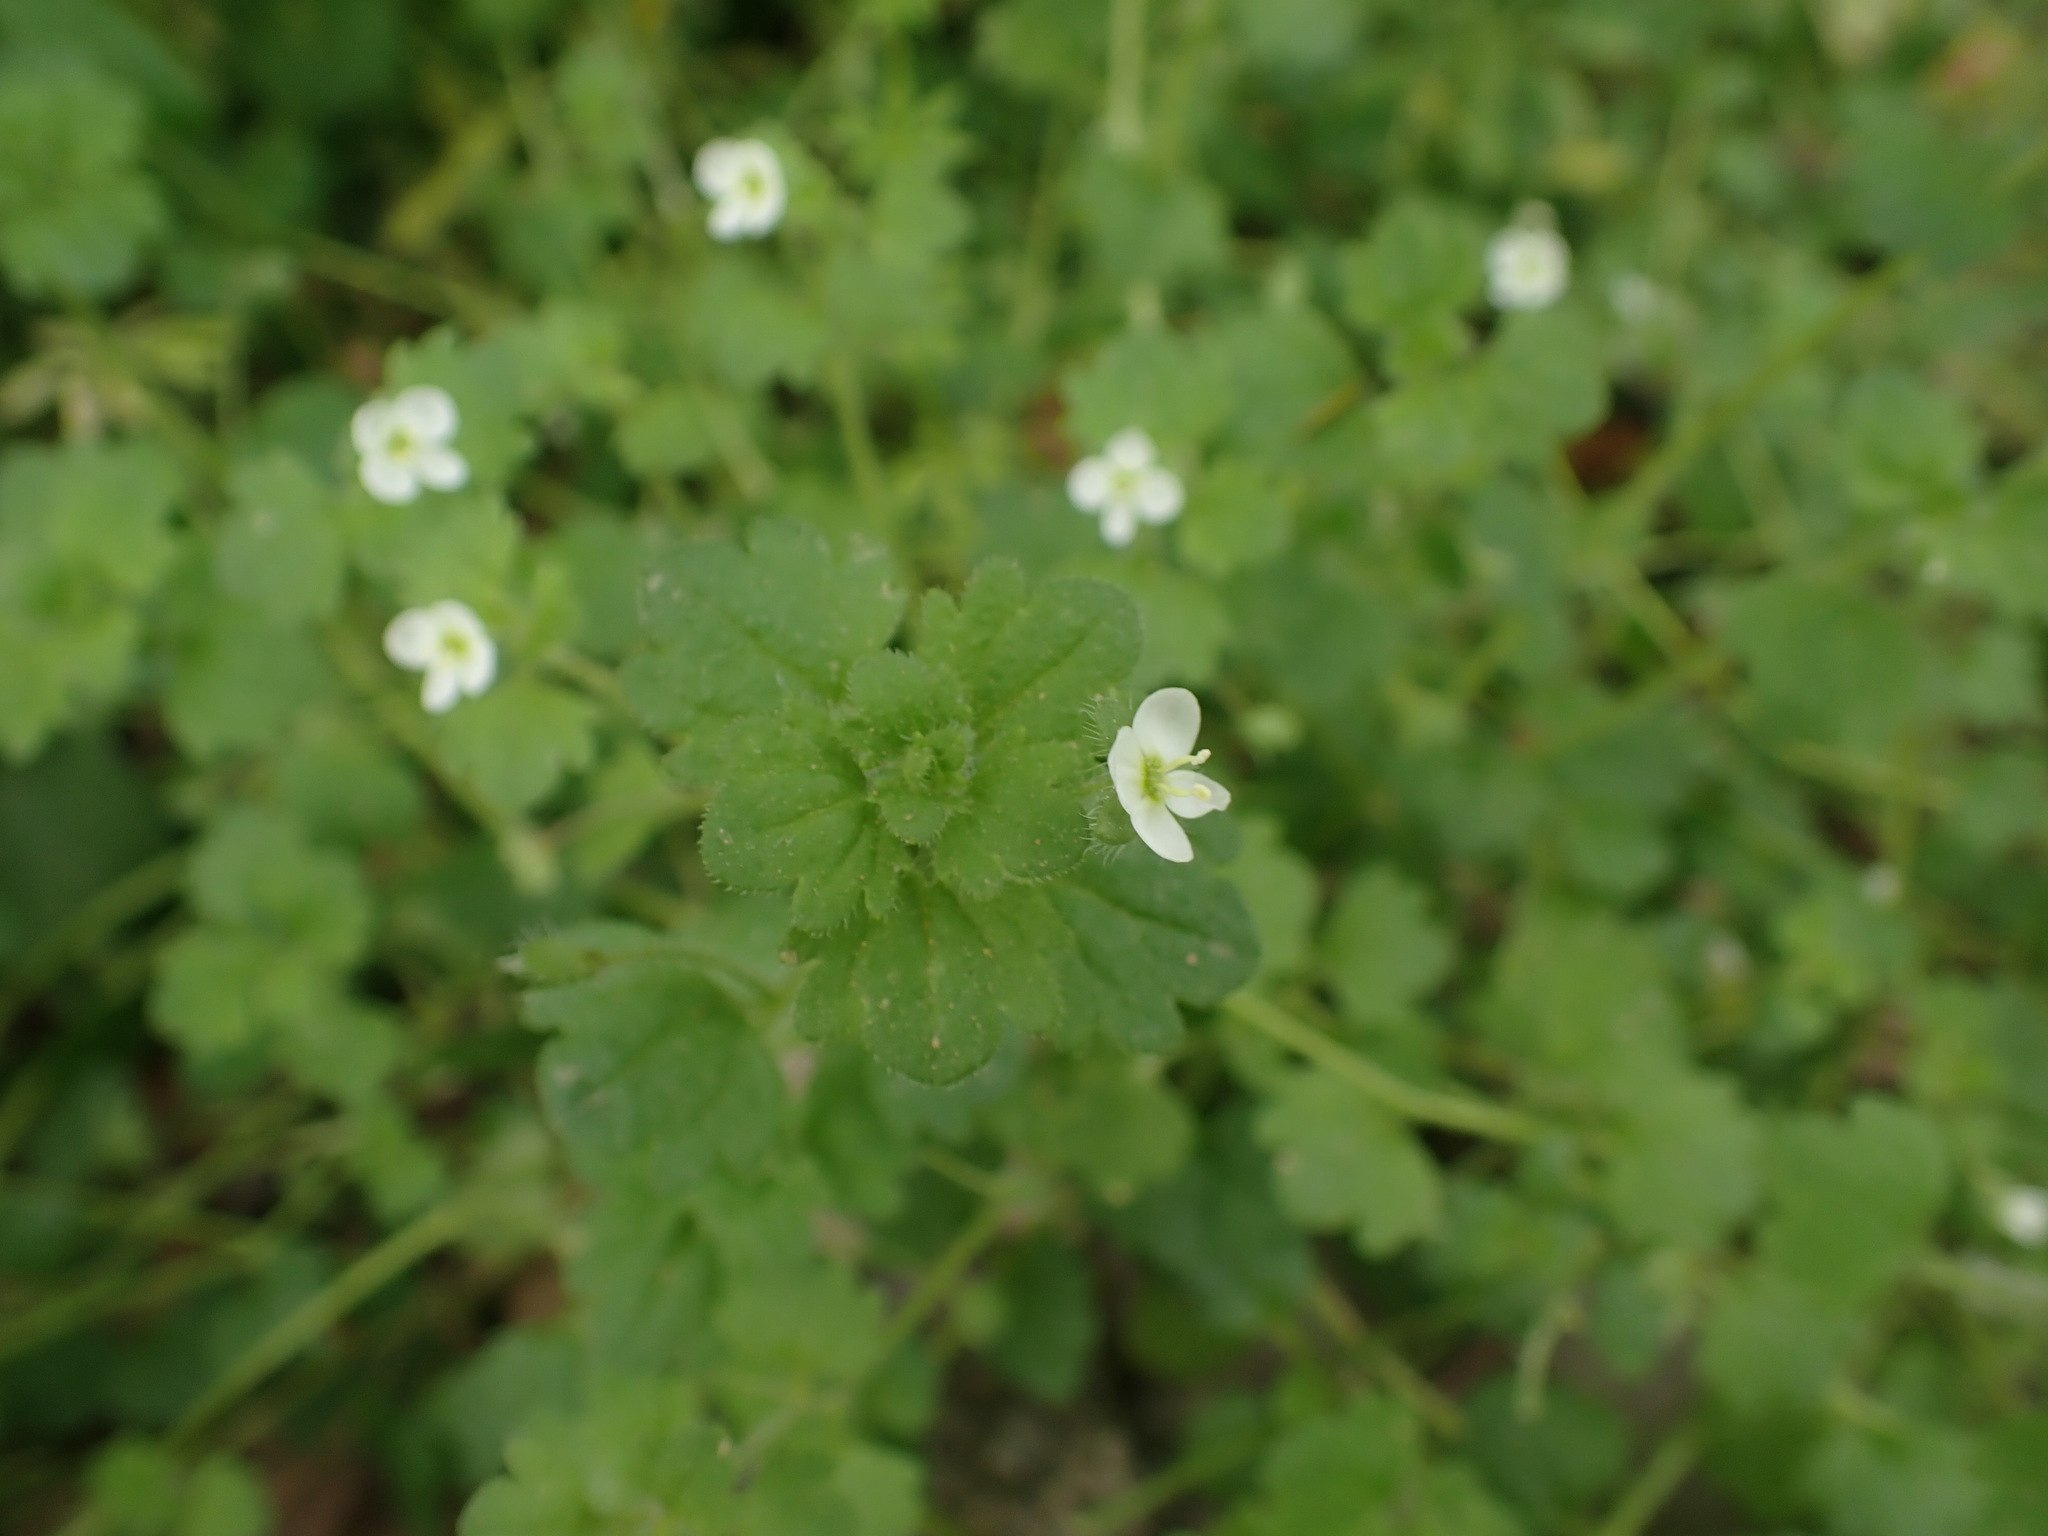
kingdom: Plantae
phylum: Tracheophyta
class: Magnoliopsida
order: Lamiales
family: Plantaginaceae
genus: Veronica
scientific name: Veronica cymbalaria
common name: Pale speedwell
